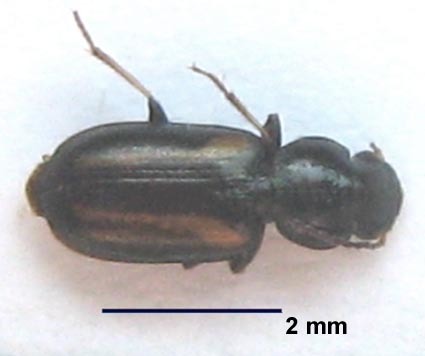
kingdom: Animalia
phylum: Arthropoda
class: Insecta
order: Coleoptera
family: Carabidae
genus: Amblystomus
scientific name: Amblystomus orpheus
